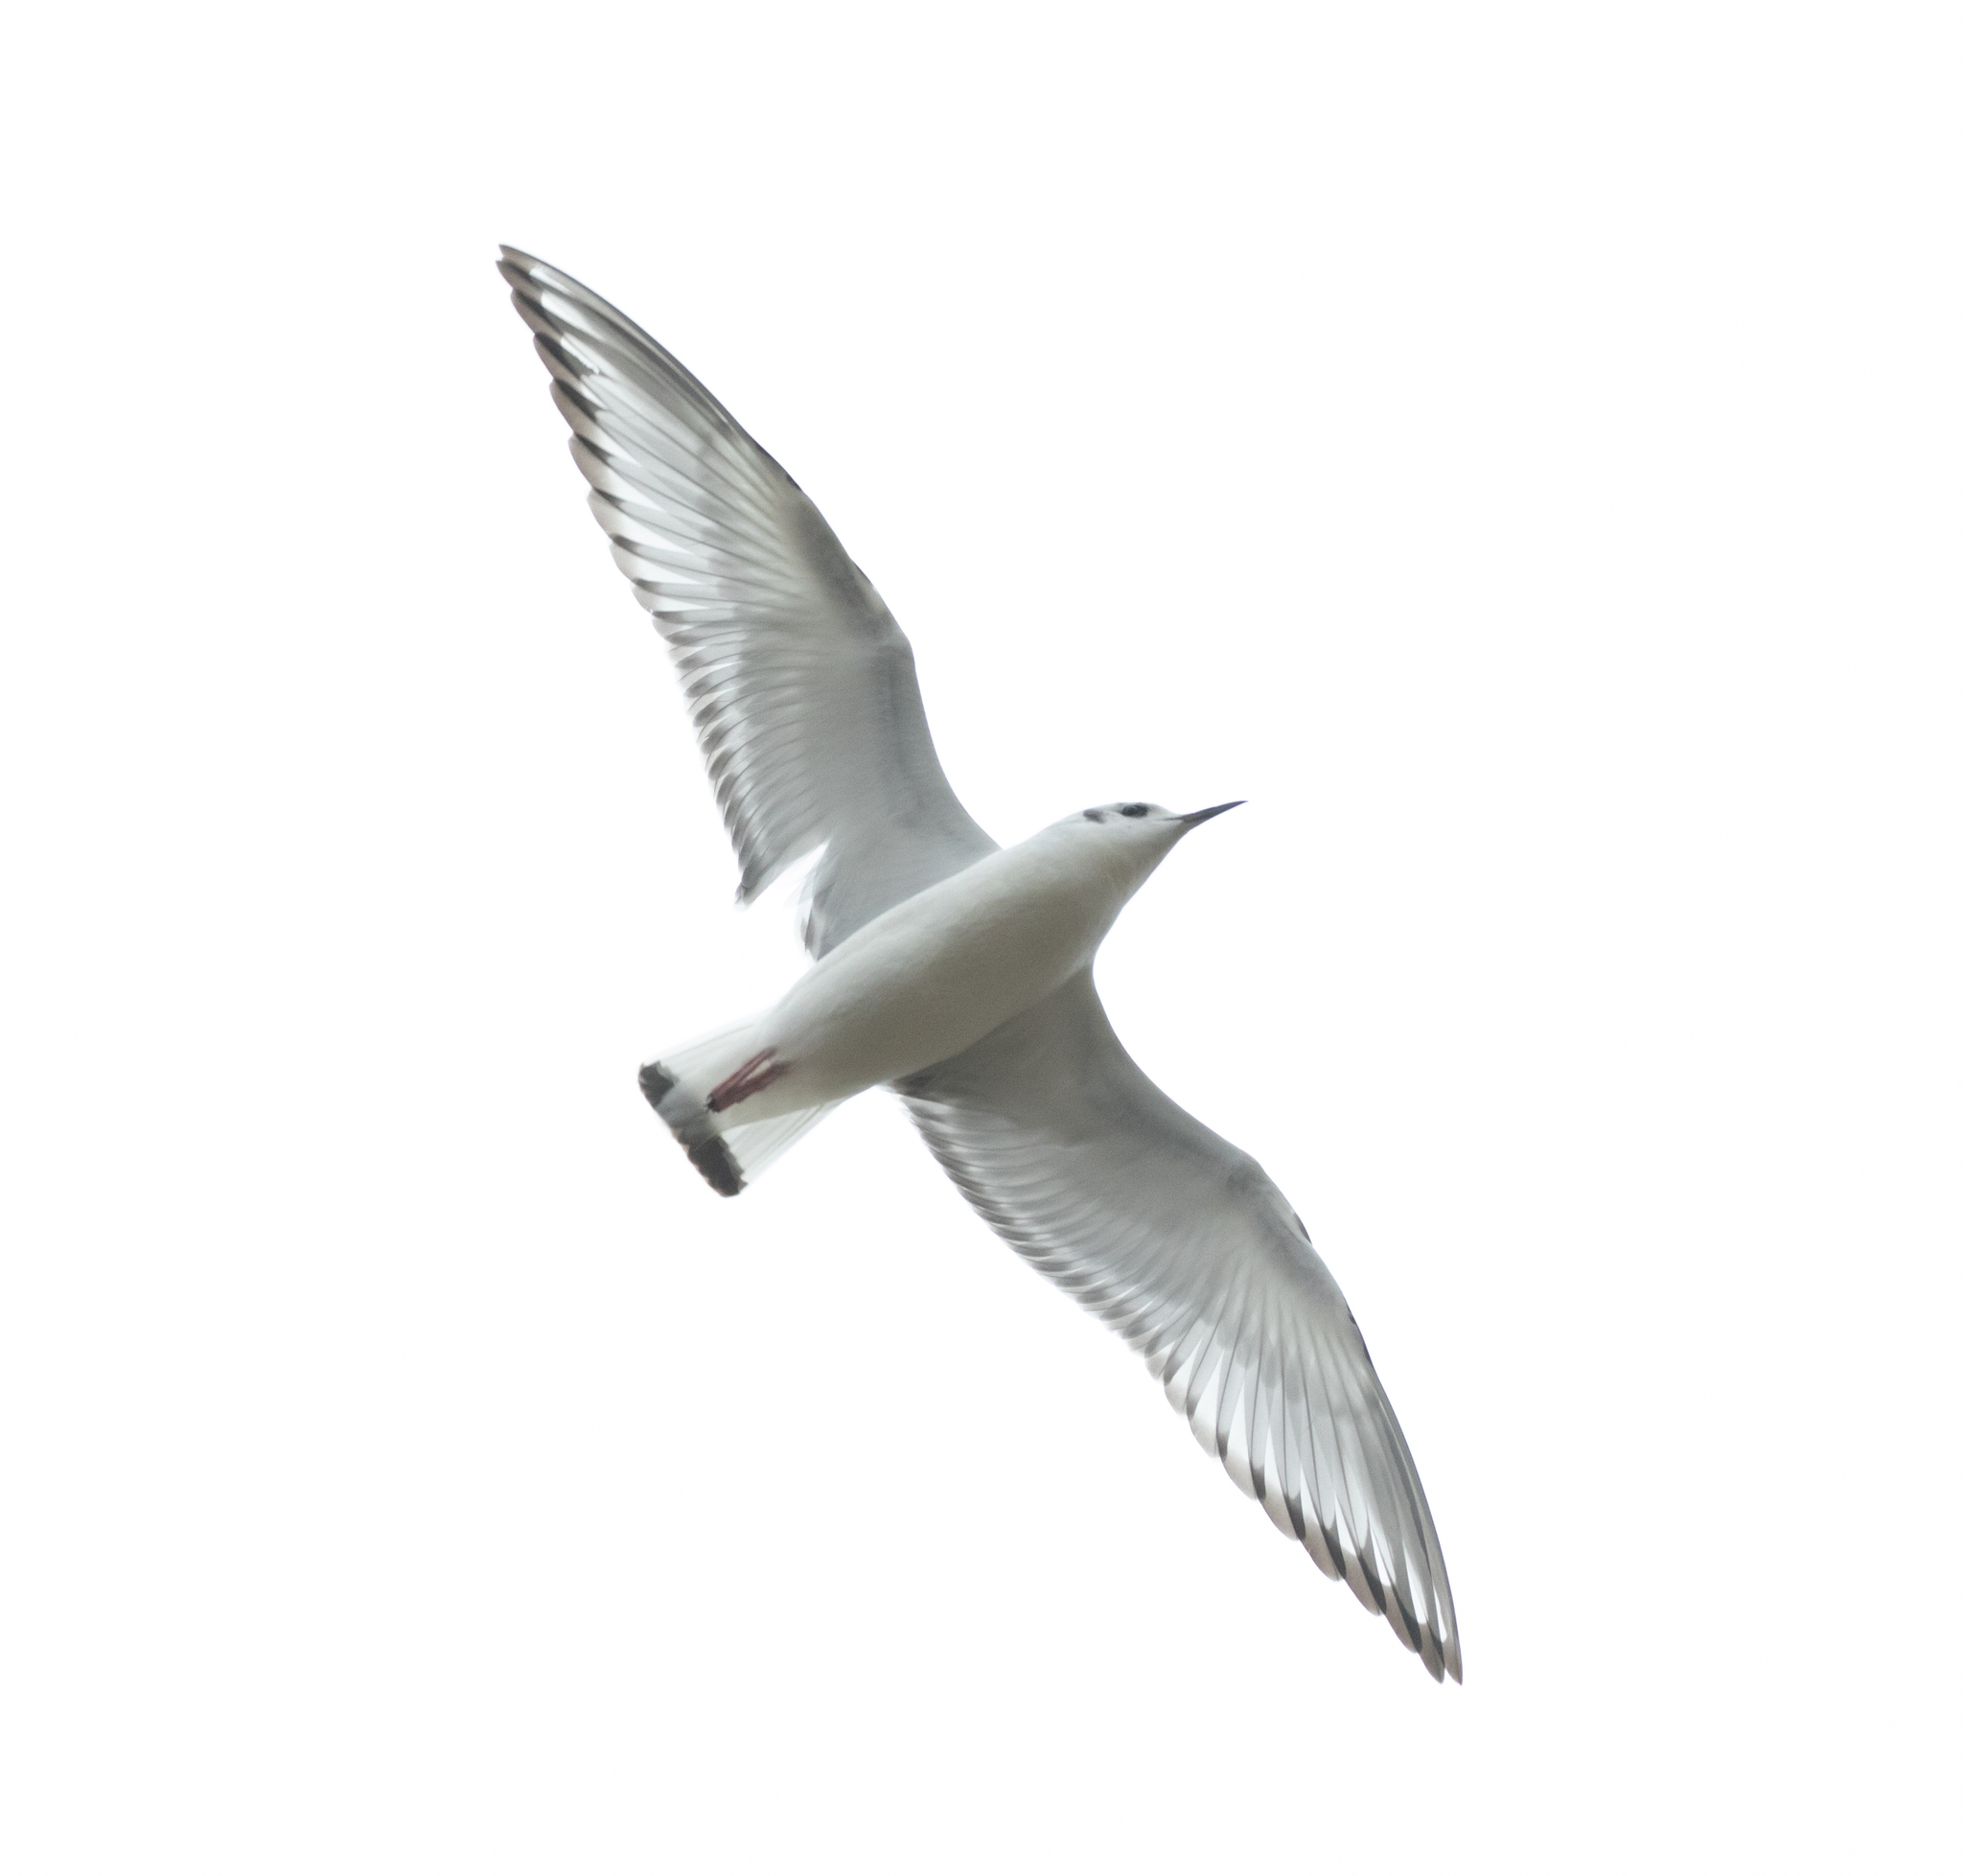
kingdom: Animalia
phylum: Chordata
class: Aves
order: Charadriiformes
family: Laridae
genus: Chroicocephalus
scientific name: Chroicocephalus philadelphia
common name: Bonaparte's gull
